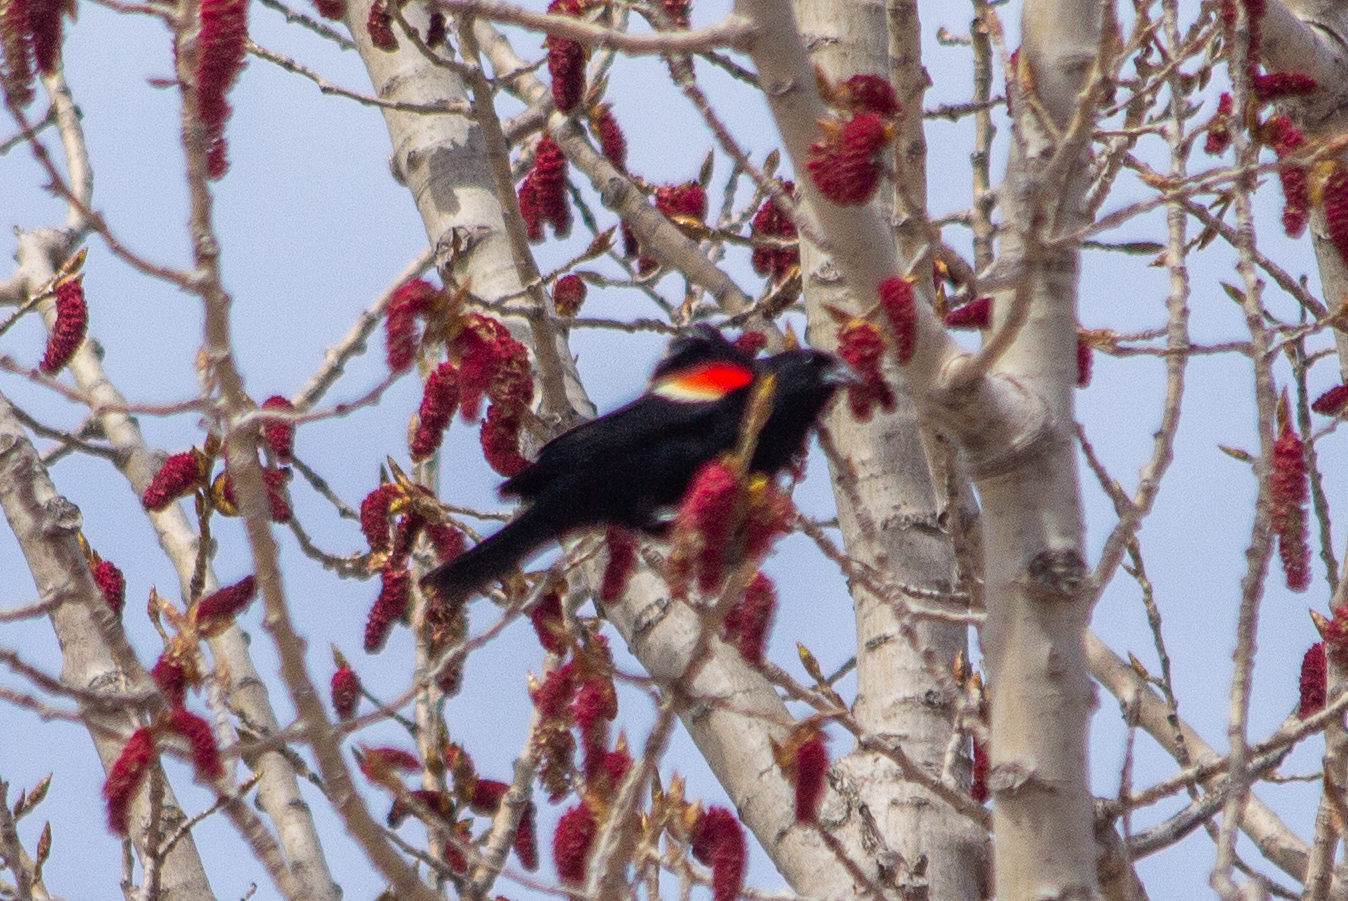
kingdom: Animalia
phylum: Chordata
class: Aves
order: Passeriformes
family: Icteridae
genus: Agelaius
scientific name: Agelaius phoeniceus
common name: Red-winged blackbird
